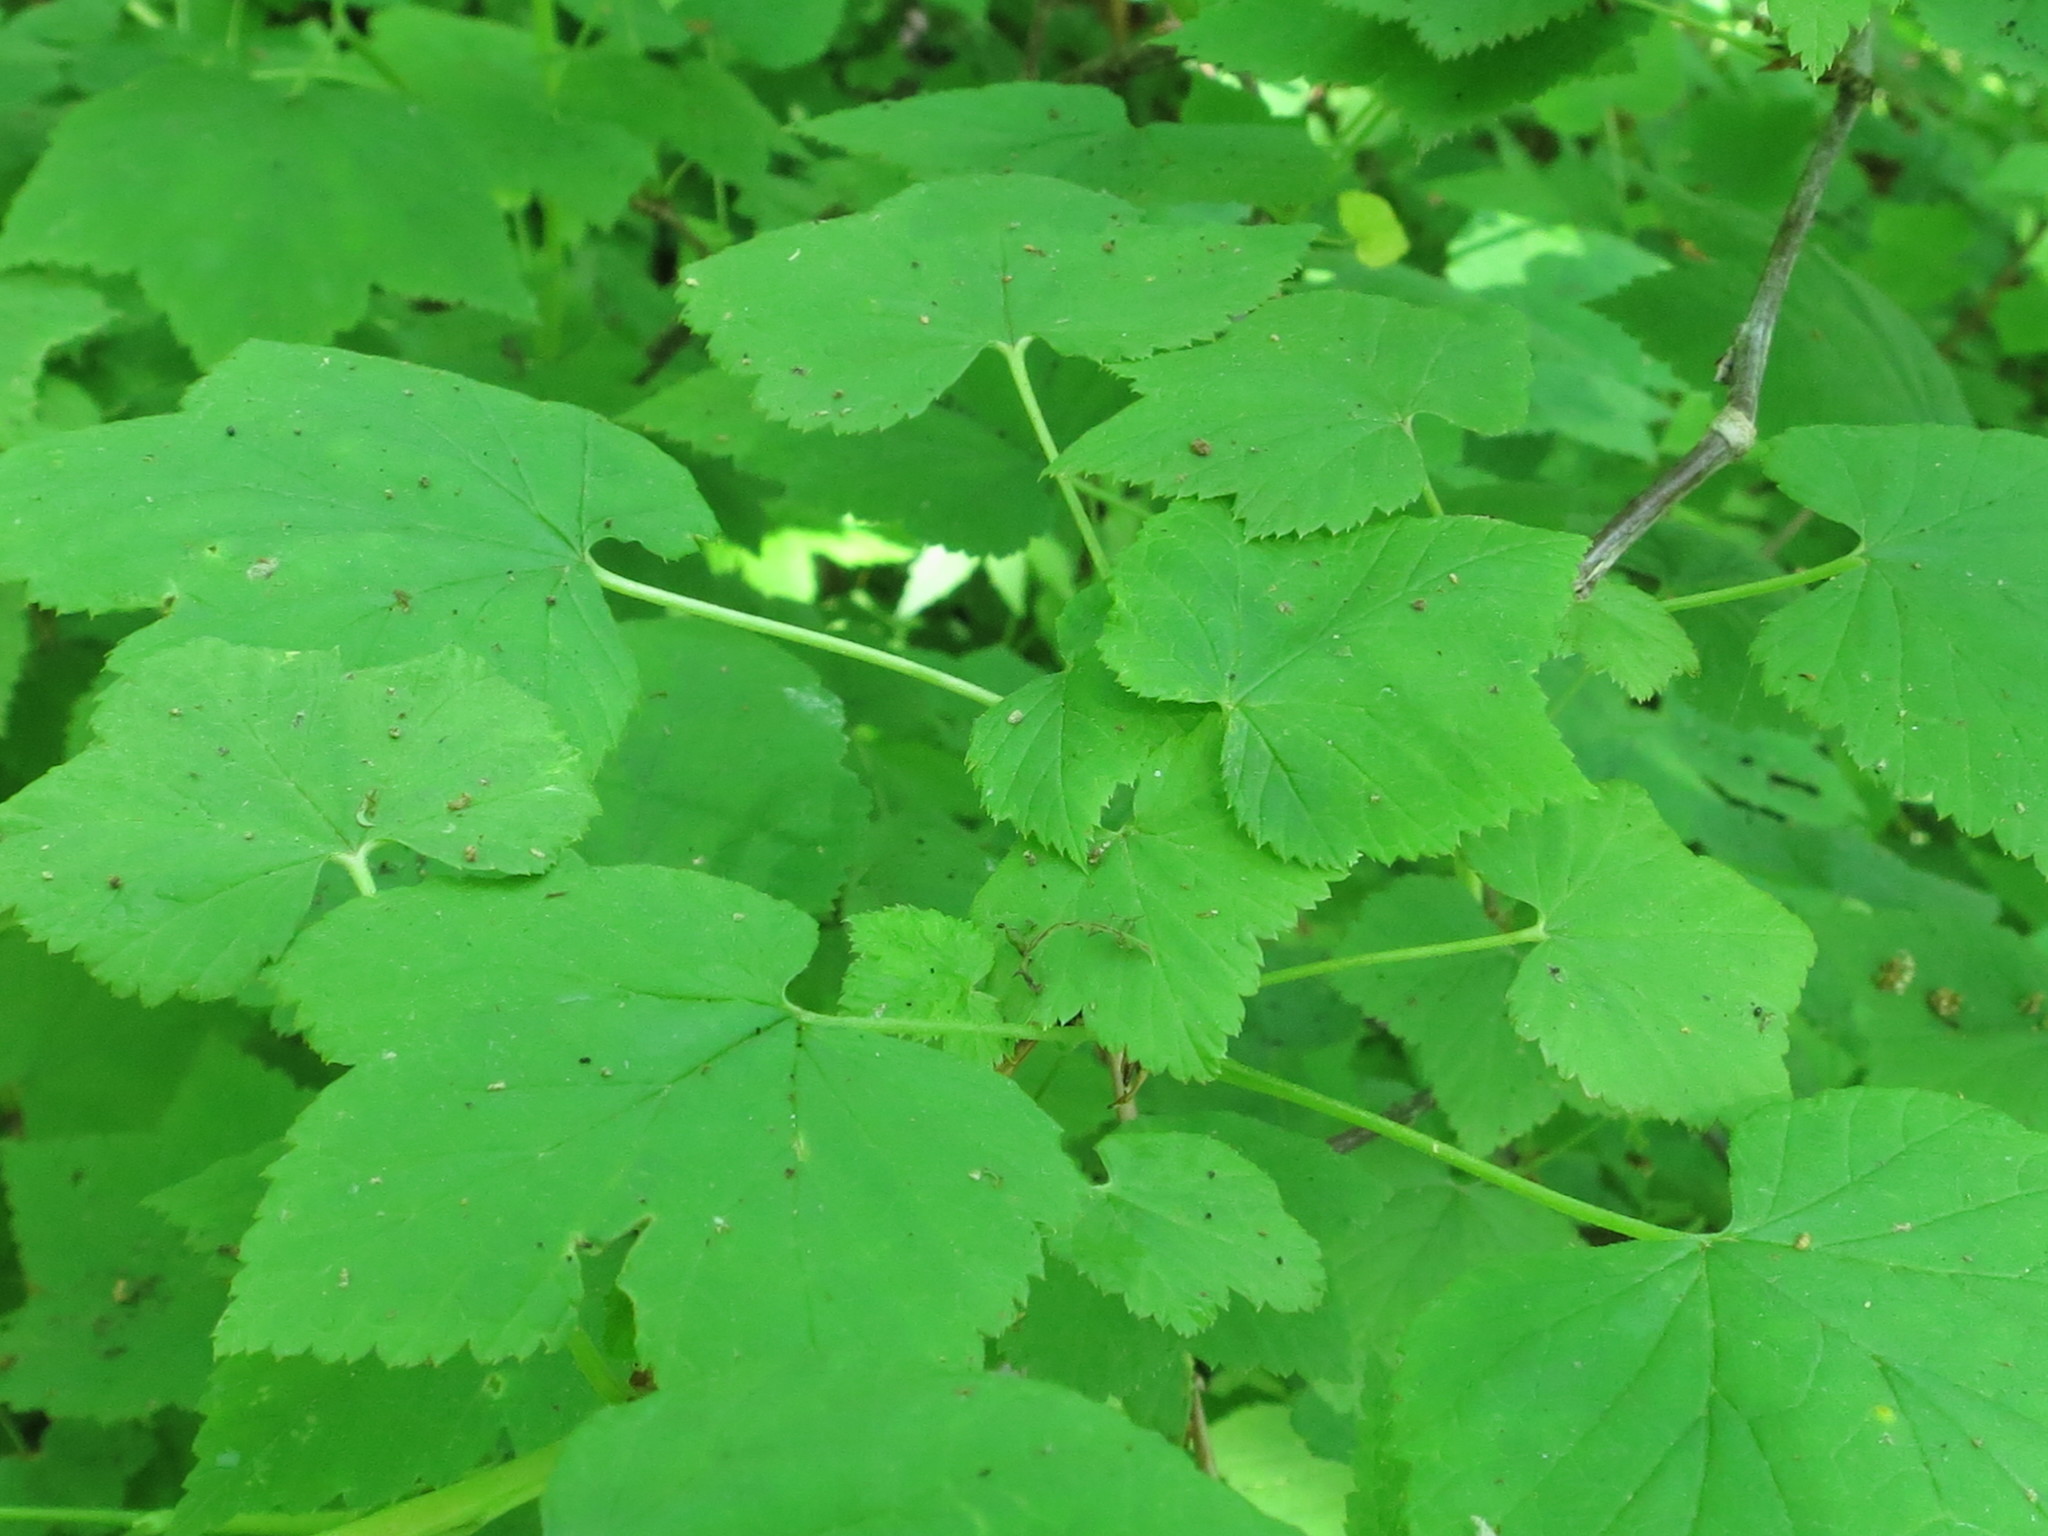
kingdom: Plantae
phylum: Tracheophyta
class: Magnoliopsida
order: Saxifragales
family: Grossulariaceae
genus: Ribes
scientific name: Ribes mandshuricum
